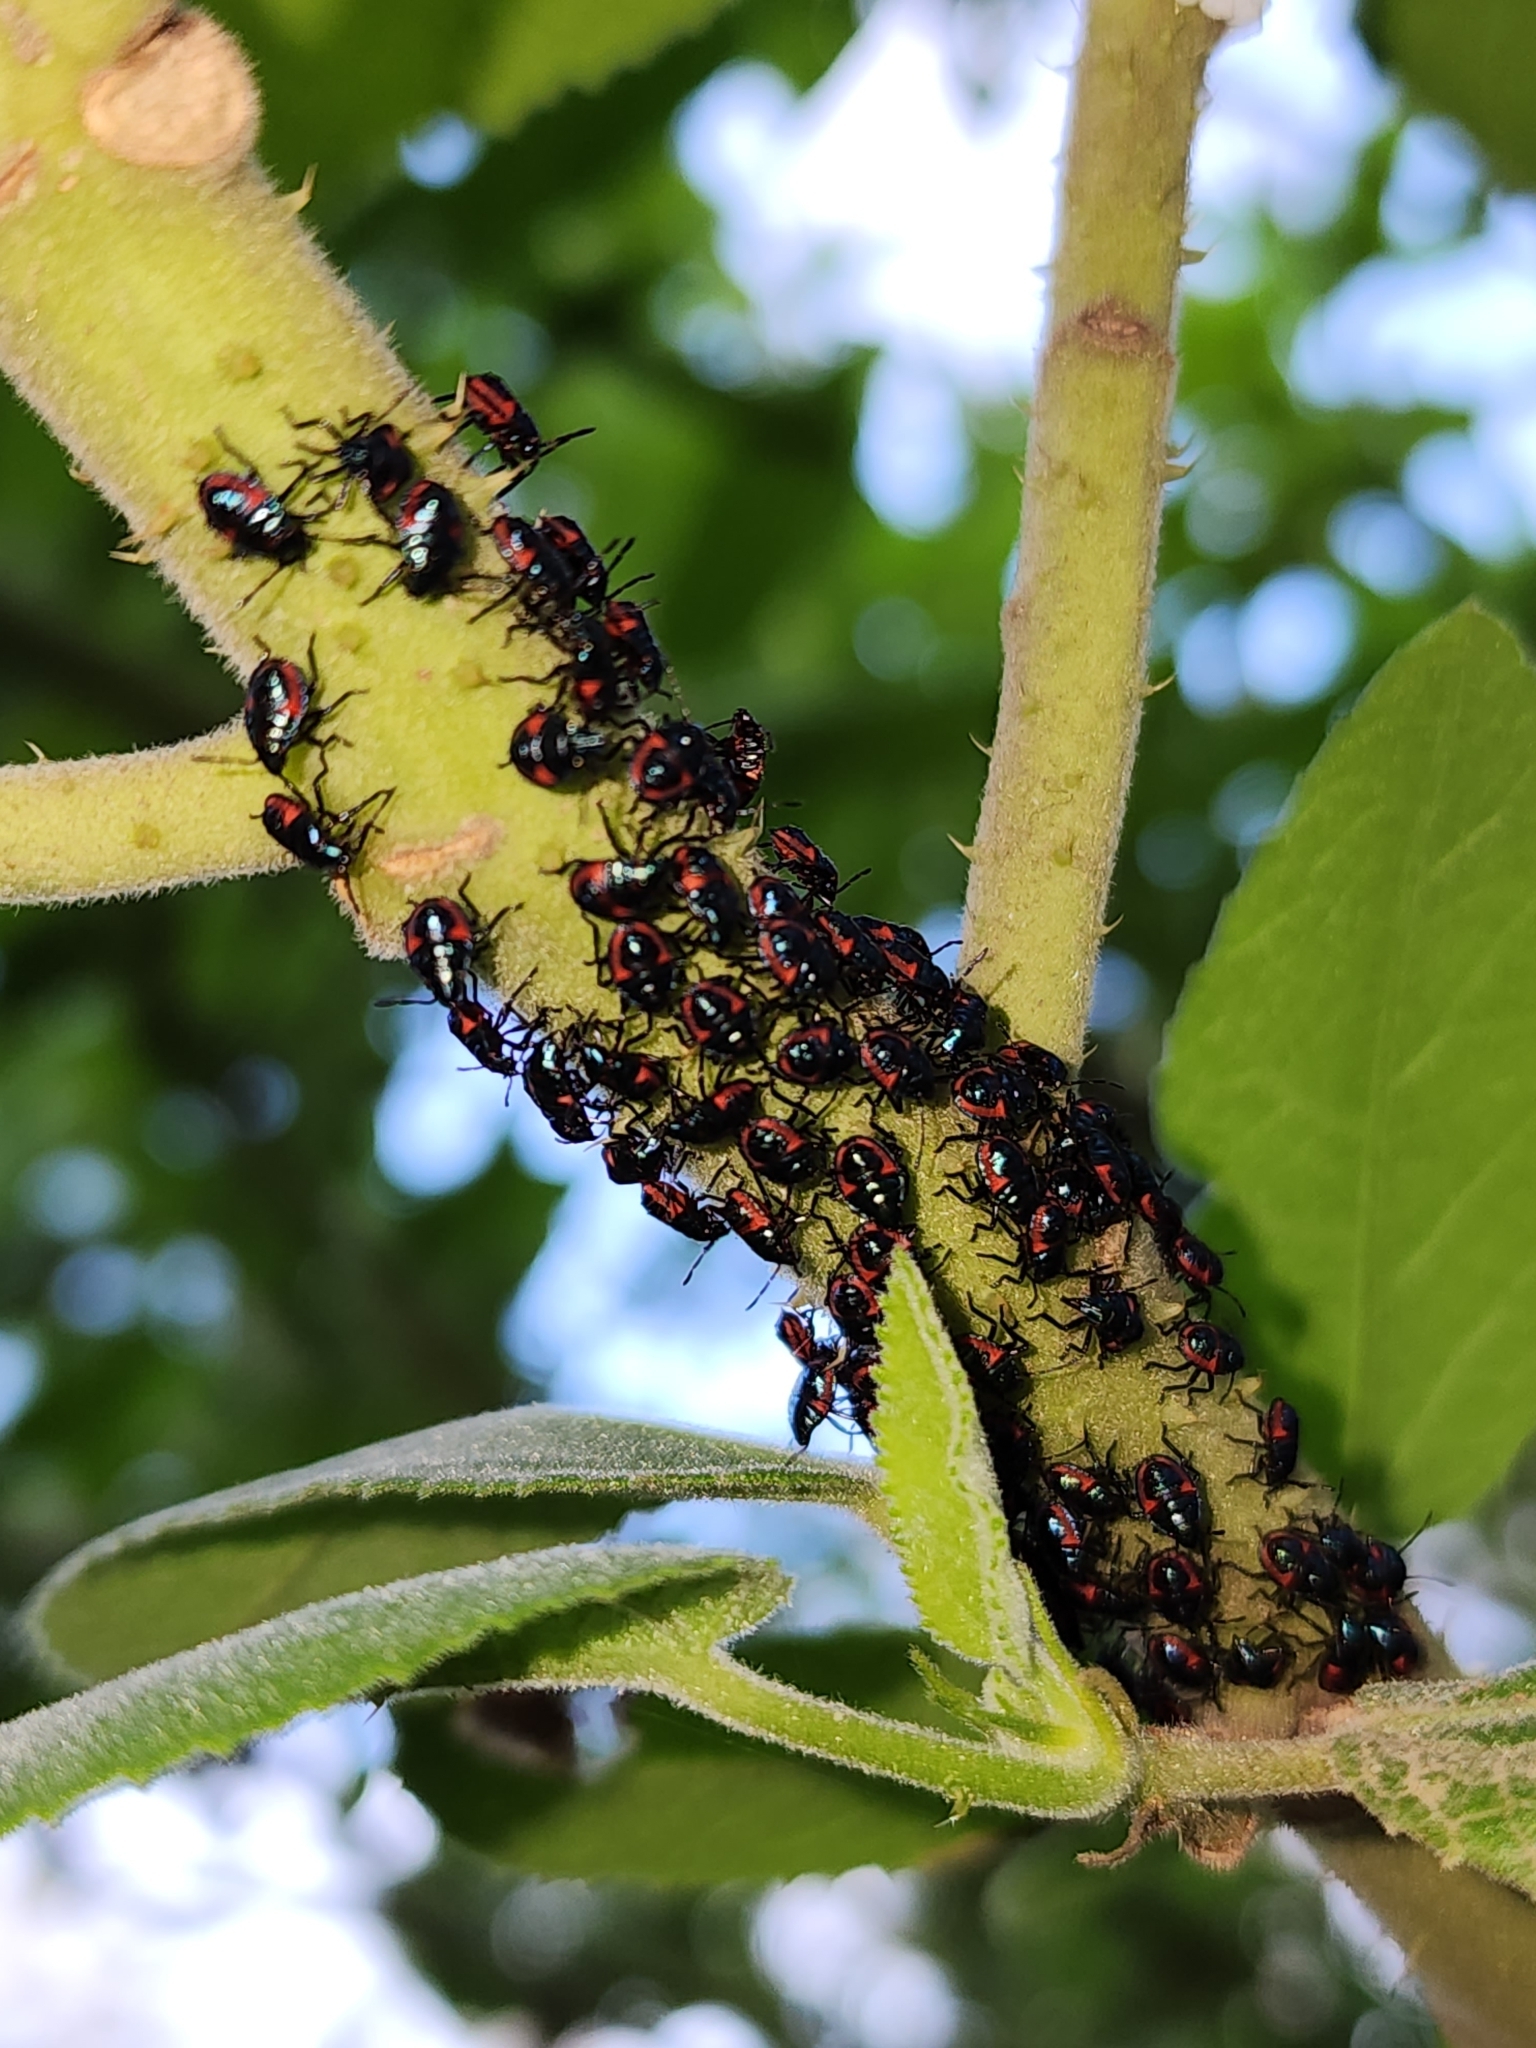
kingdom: Animalia
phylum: Arthropoda
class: Insecta
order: Hemiptera
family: Scutelleridae
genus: Tectocoris
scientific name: Tectocoris diophthalmus
